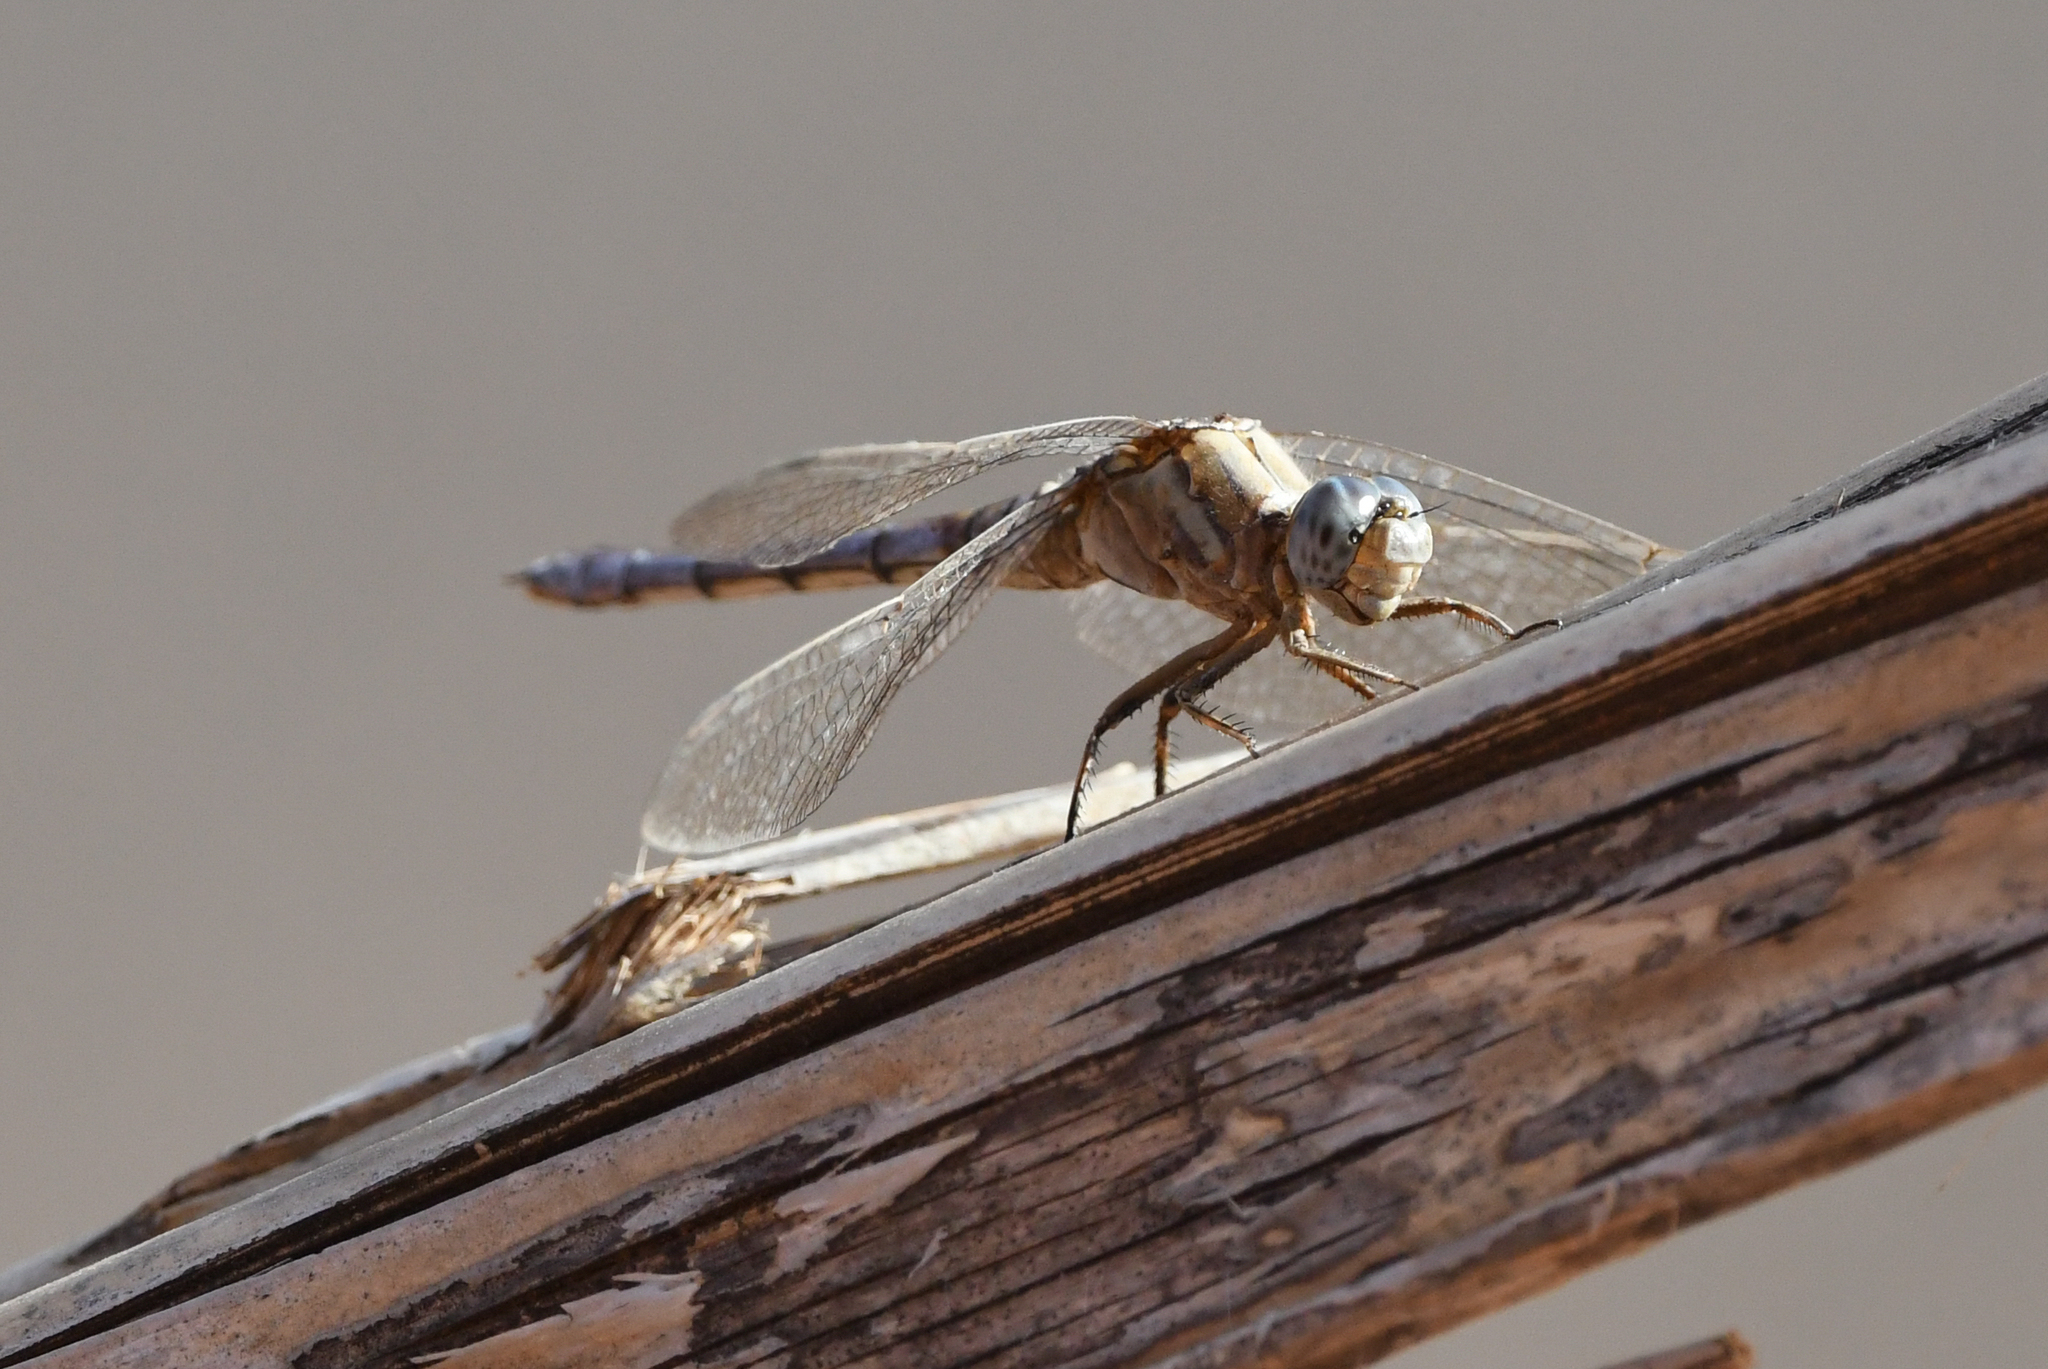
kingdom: Animalia
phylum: Arthropoda
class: Insecta
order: Odonata
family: Libellulidae
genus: Orthetrum
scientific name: Orthetrum chrysostigma
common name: Epaulet skimmer
